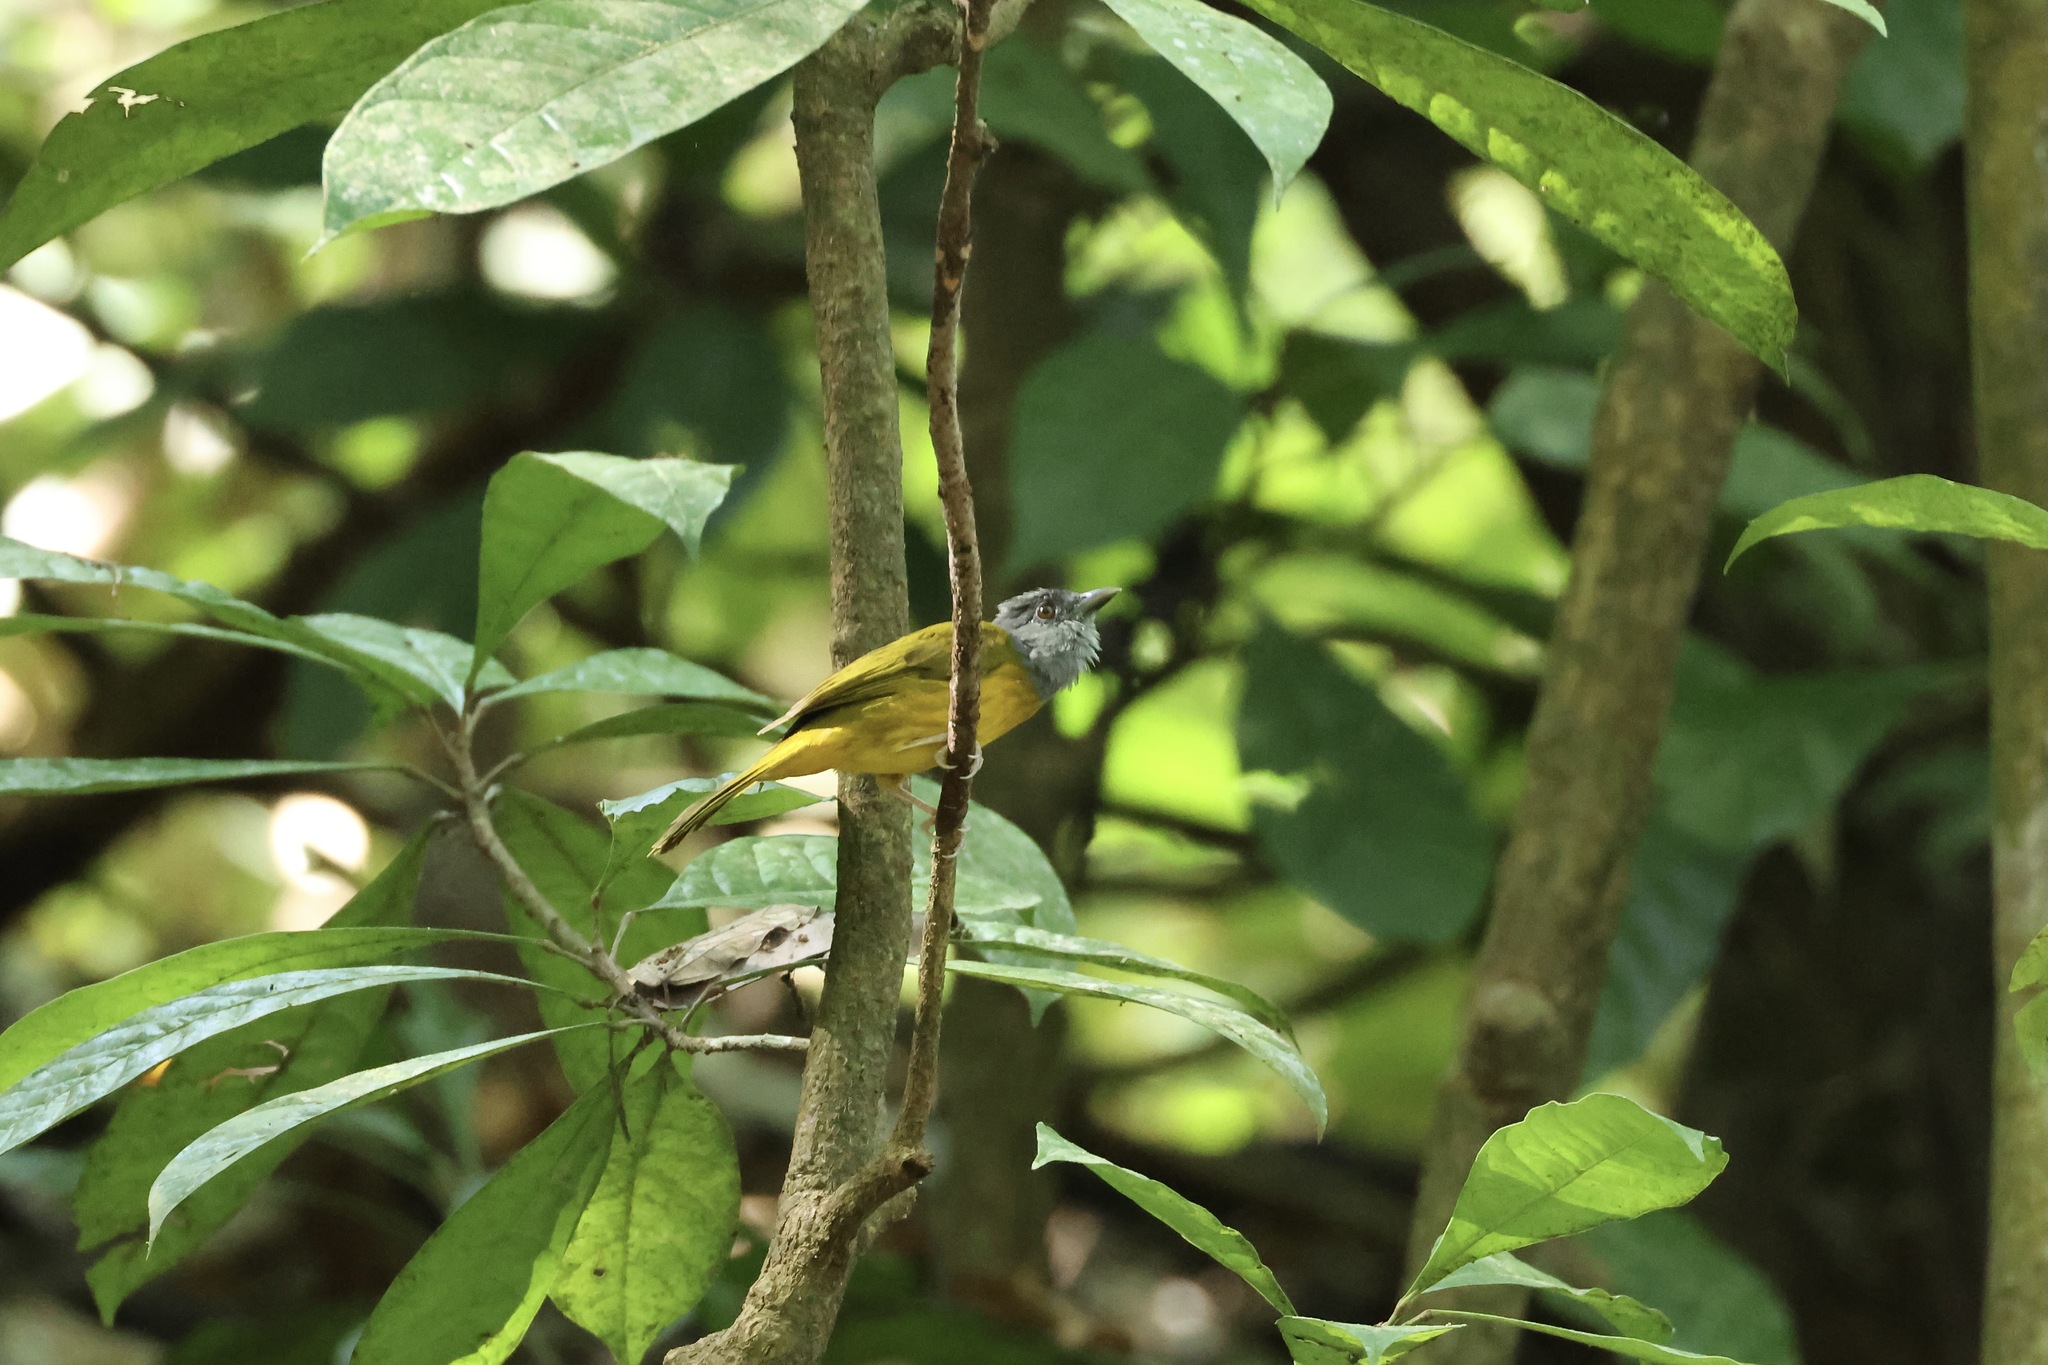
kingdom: Animalia
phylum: Chordata
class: Aves
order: Passeriformes
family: Thraupidae
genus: Eucometis
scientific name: Eucometis penicillata
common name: Grey-headed tanager
